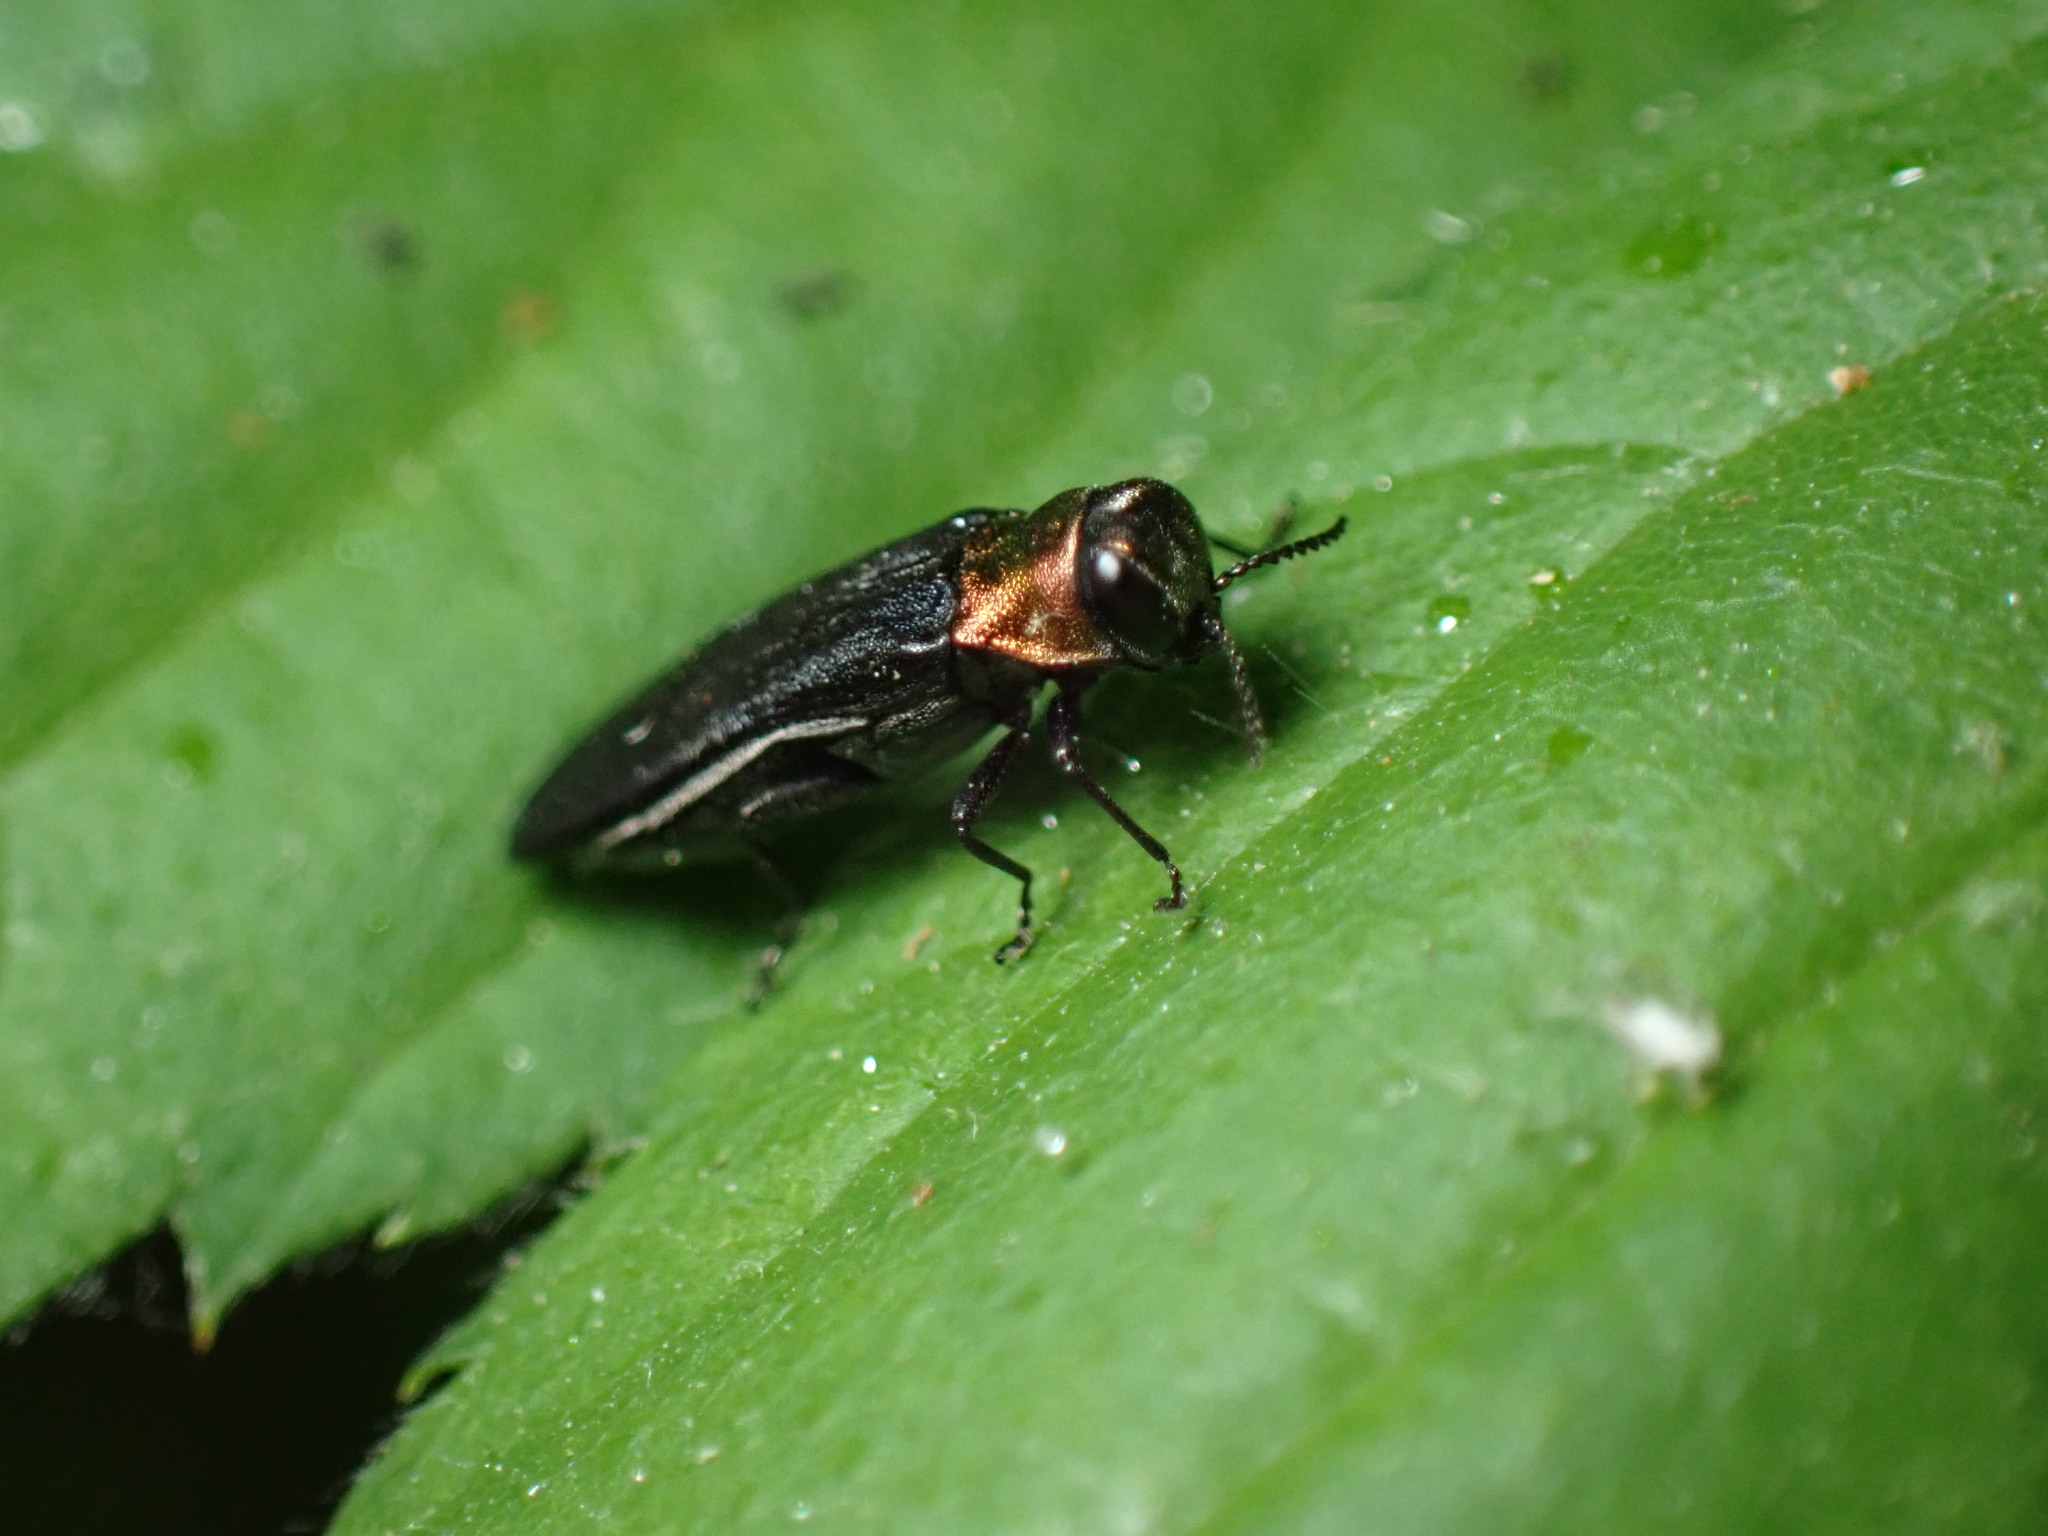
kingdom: Animalia
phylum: Arthropoda
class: Insecta
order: Coleoptera
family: Buprestidae
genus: Agrilus
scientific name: Agrilus ruficollis
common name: Red-necked cane borer beetle
